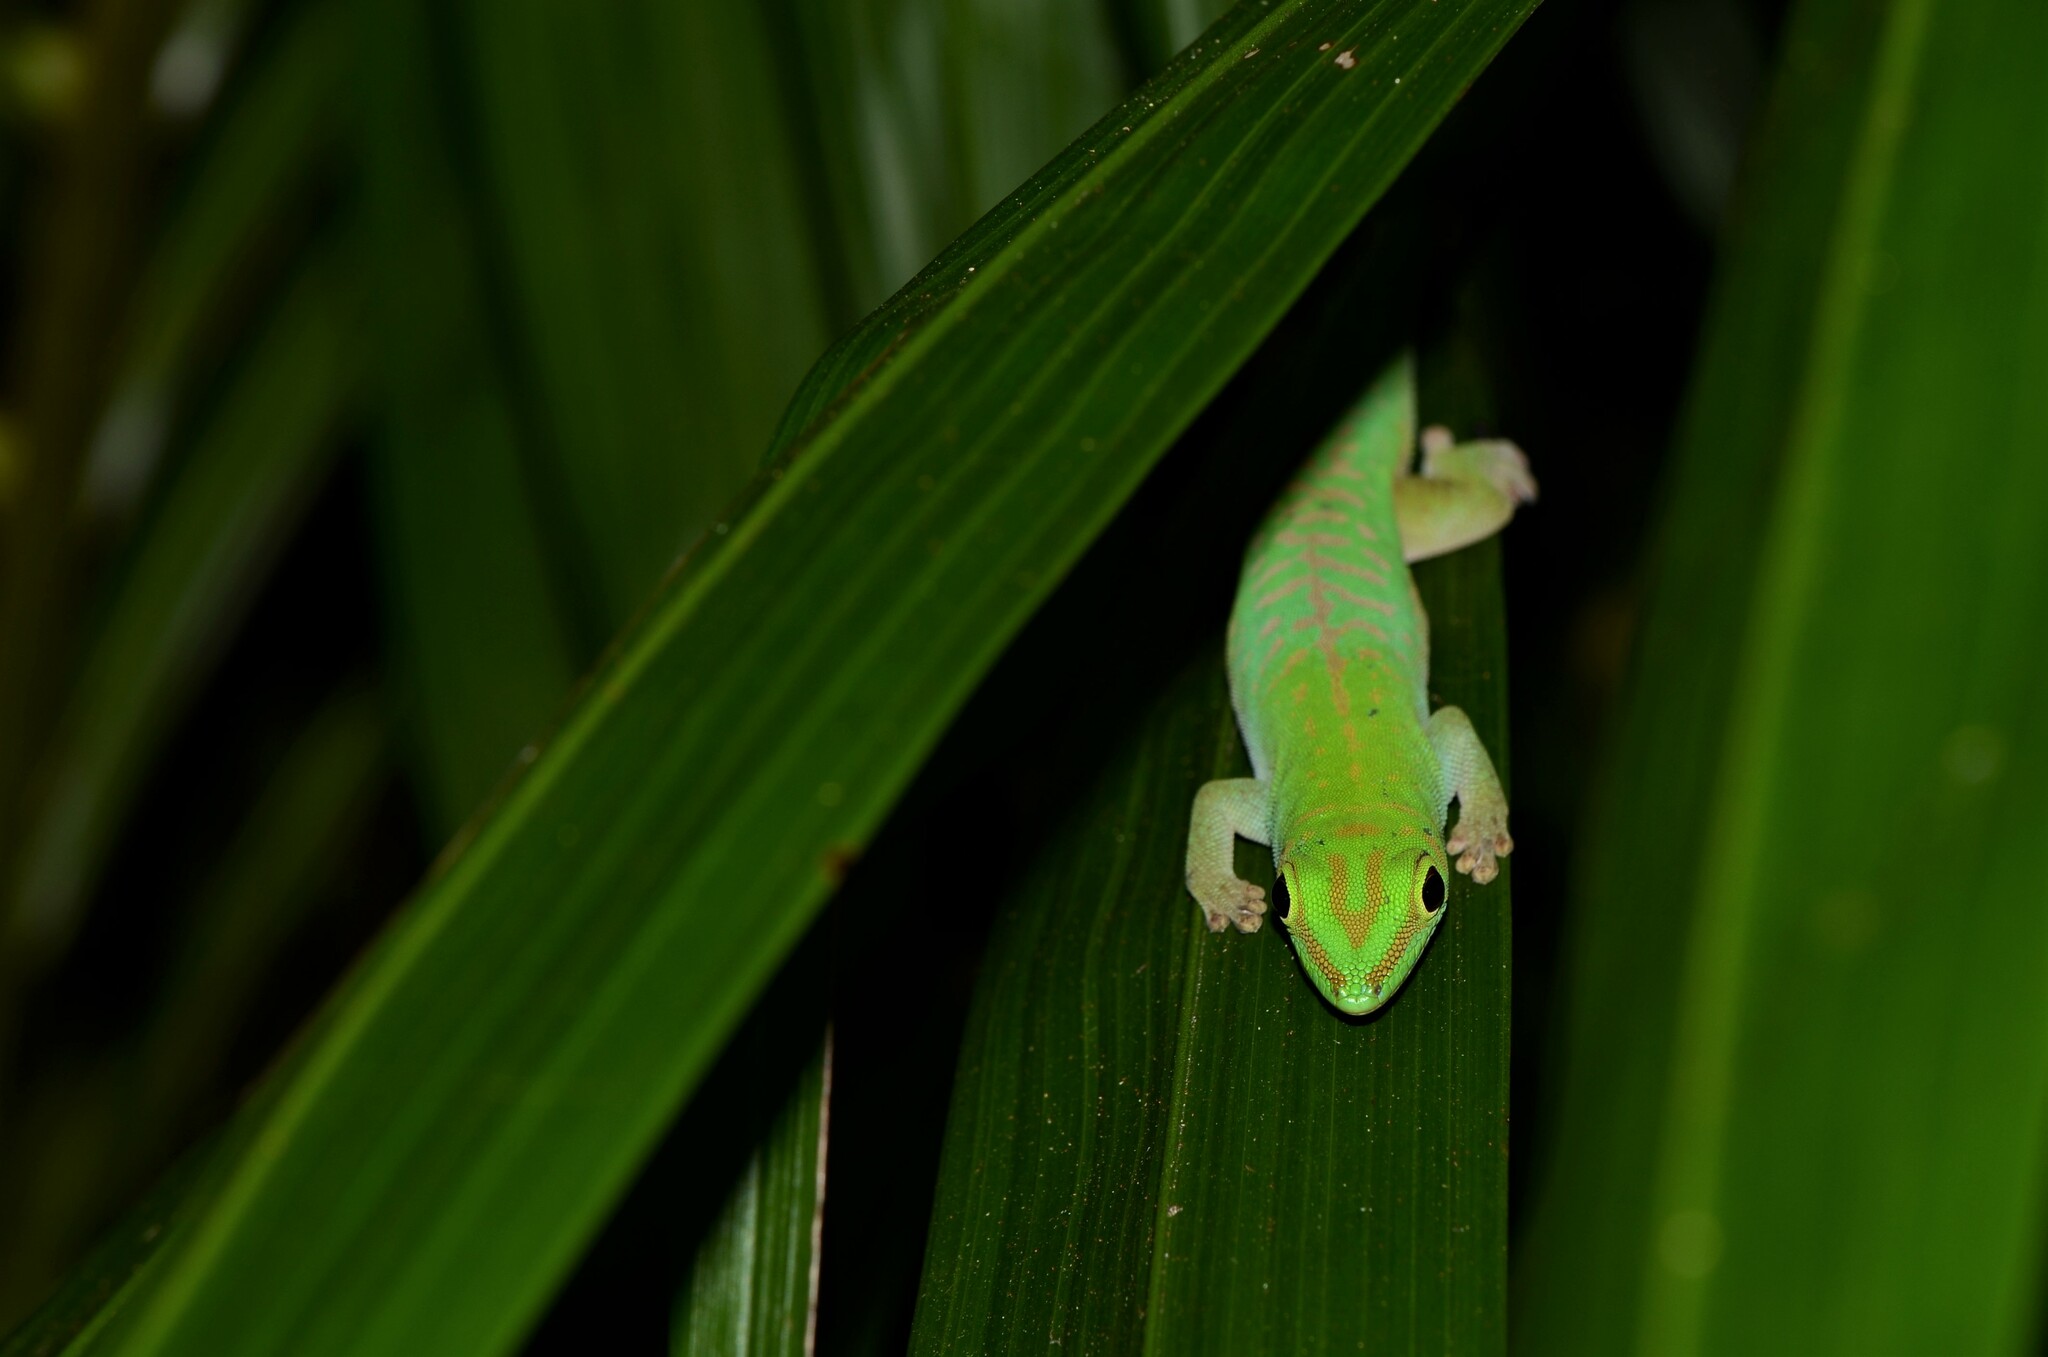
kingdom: Animalia
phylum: Chordata
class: Squamata
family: Gekkonidae
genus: Phelsuma
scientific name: Phelsuma astriata
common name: Seychelles day gecko
